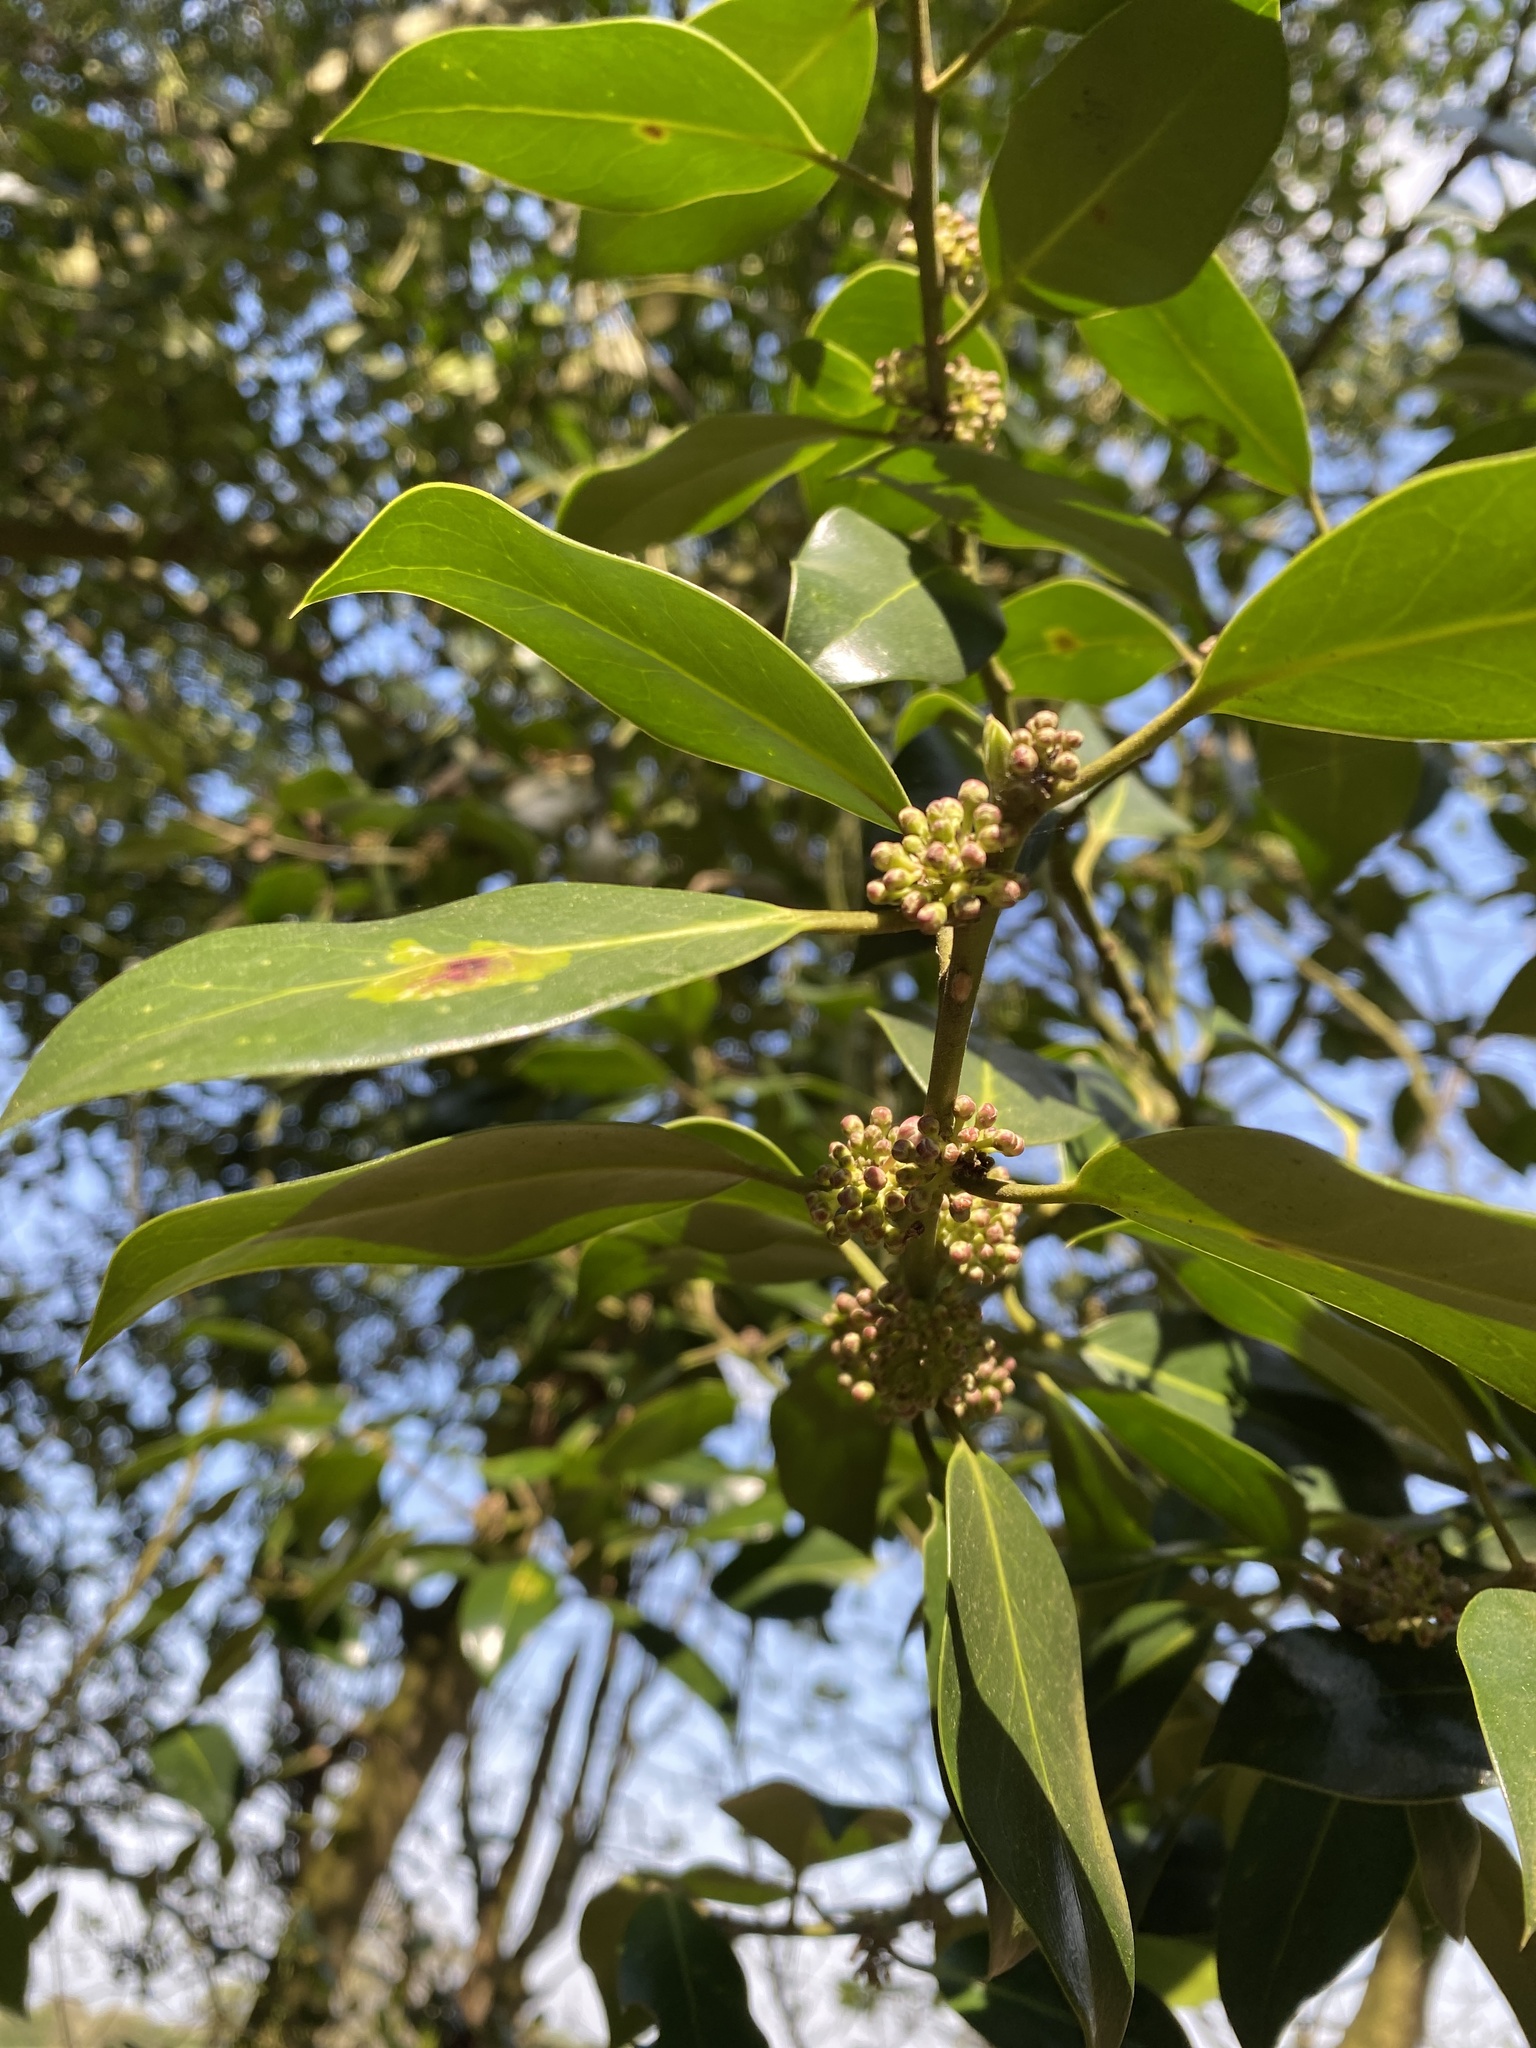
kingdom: Plantae
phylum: Tracheophyta
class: Magnoliopsida
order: Laurales
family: Lauraceae
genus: Laurus
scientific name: Laurus nobilis
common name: Bay
